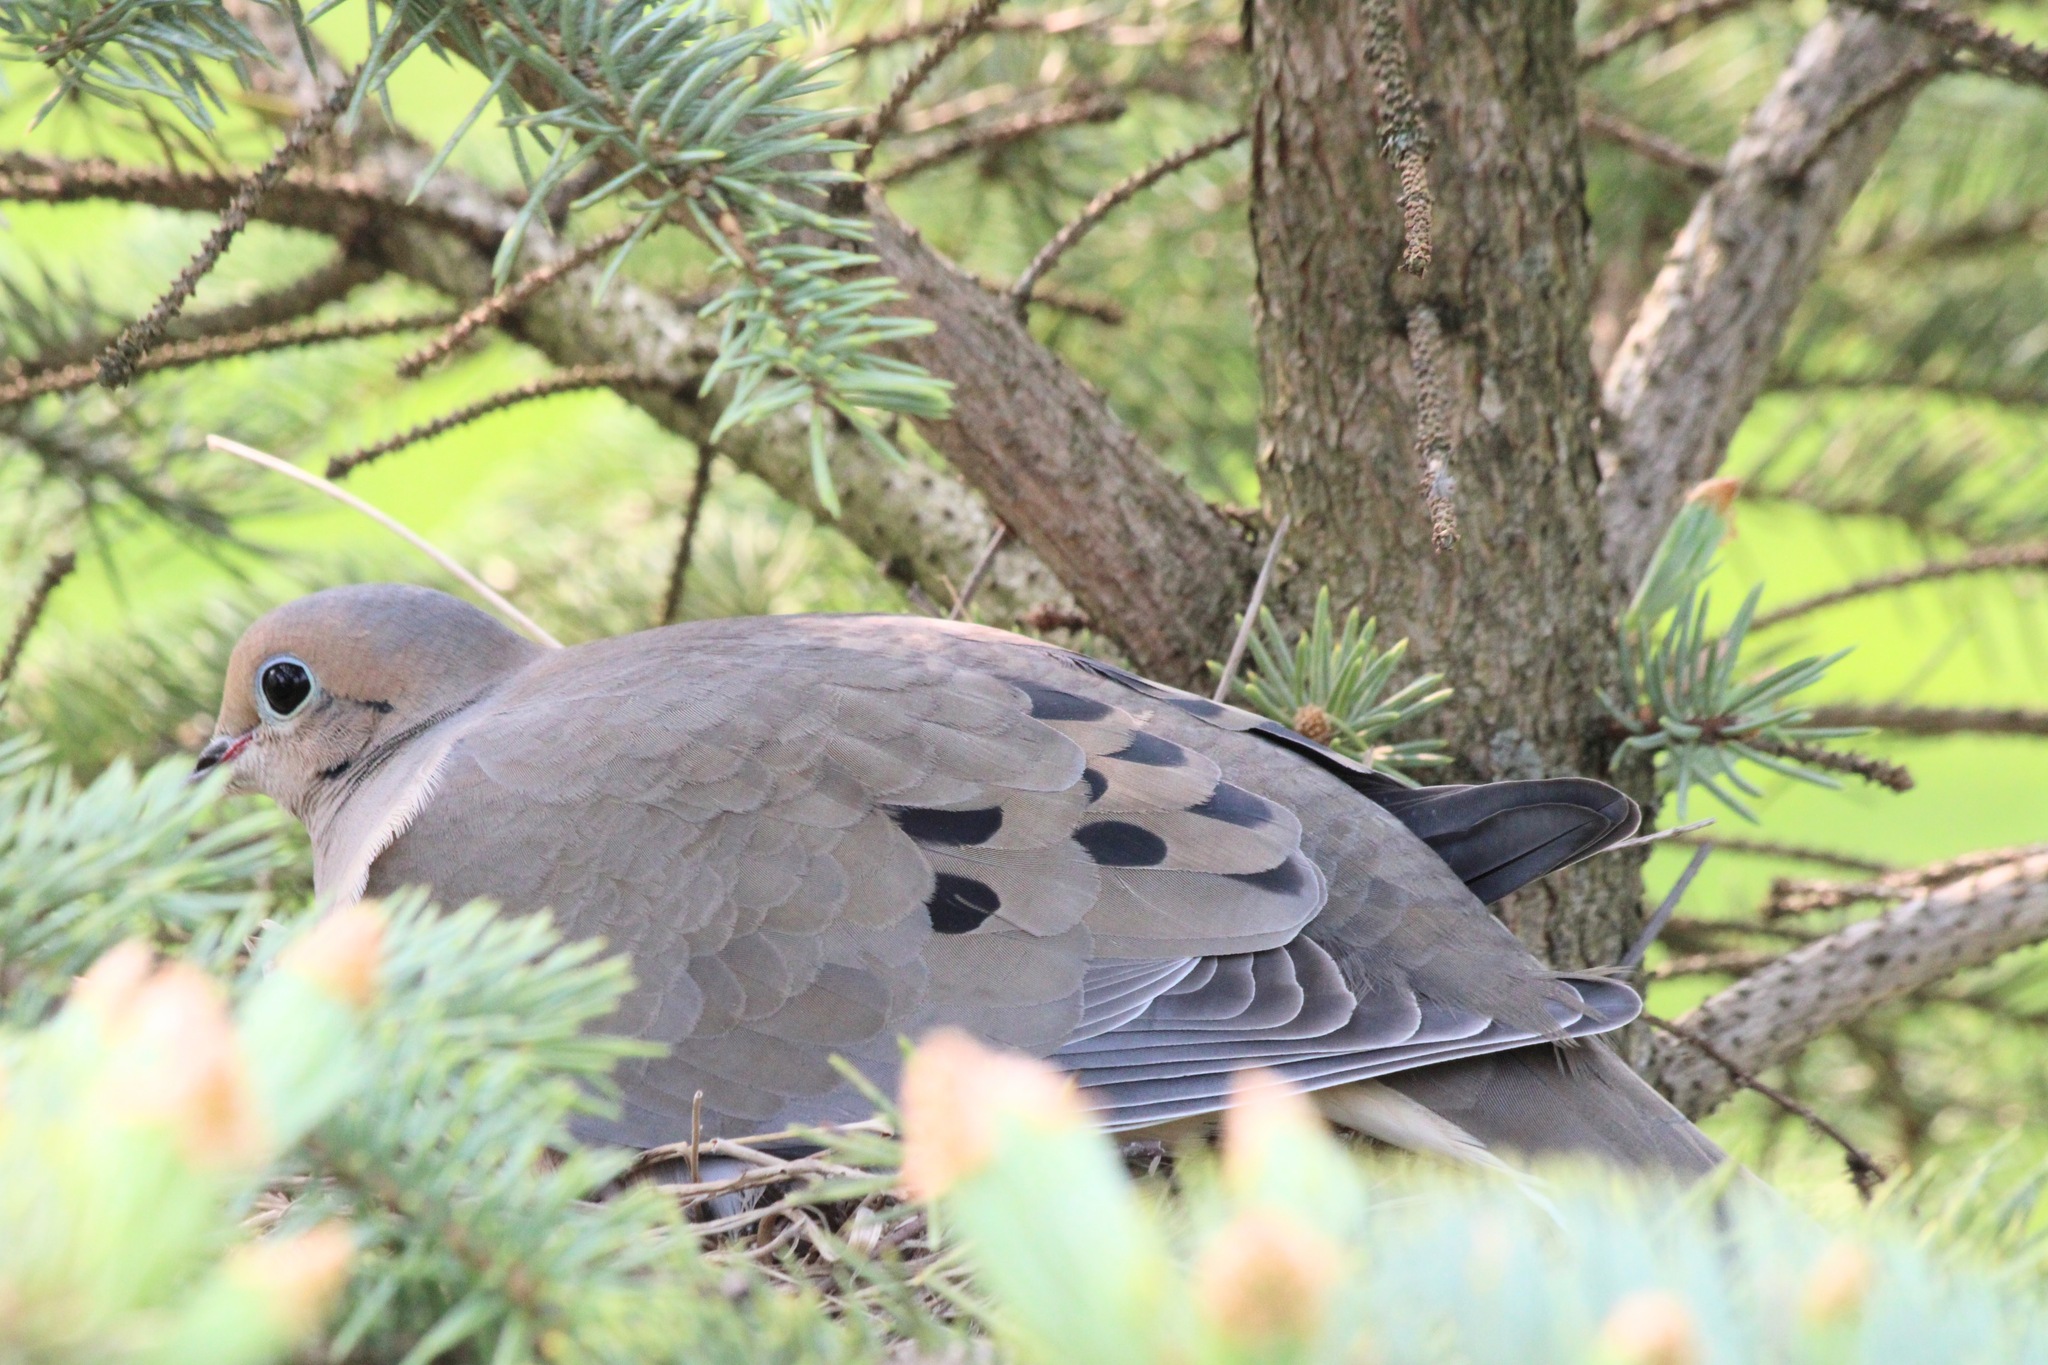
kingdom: Animalia
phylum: Chordata
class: Aves
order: Columbiformes
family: Columbidae
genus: Zenaida
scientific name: Zenaida macroura
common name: Mourning dove
